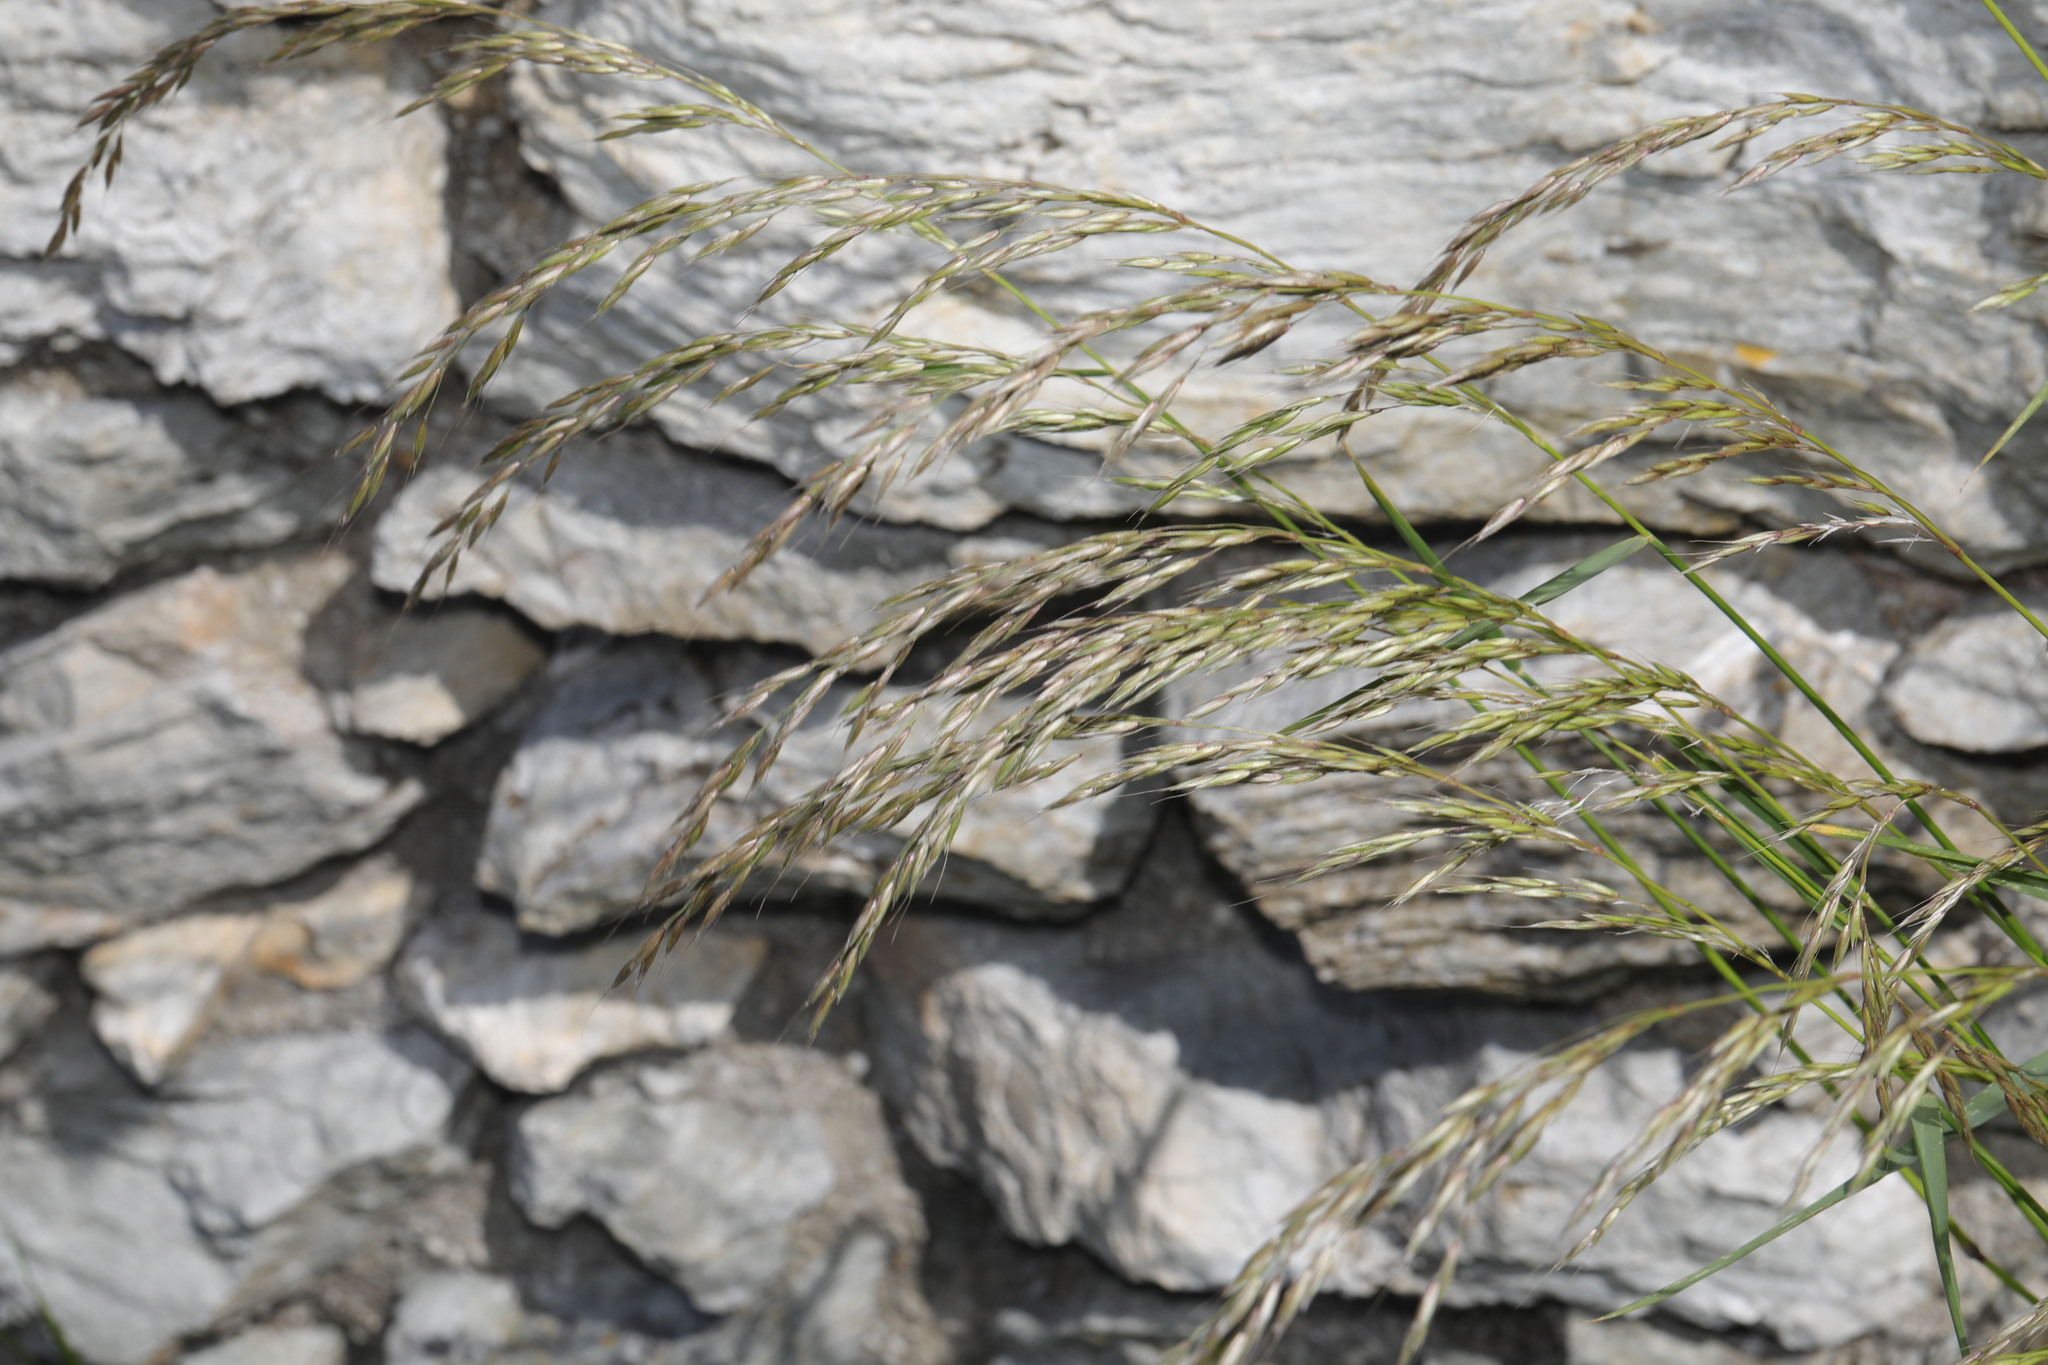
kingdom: Plantae
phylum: Tracheophyta
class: Liliopsida
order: Poales
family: Poaceae
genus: Arrhenatherum
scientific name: Arrhenatherum elatius
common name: Tall oatgrass
